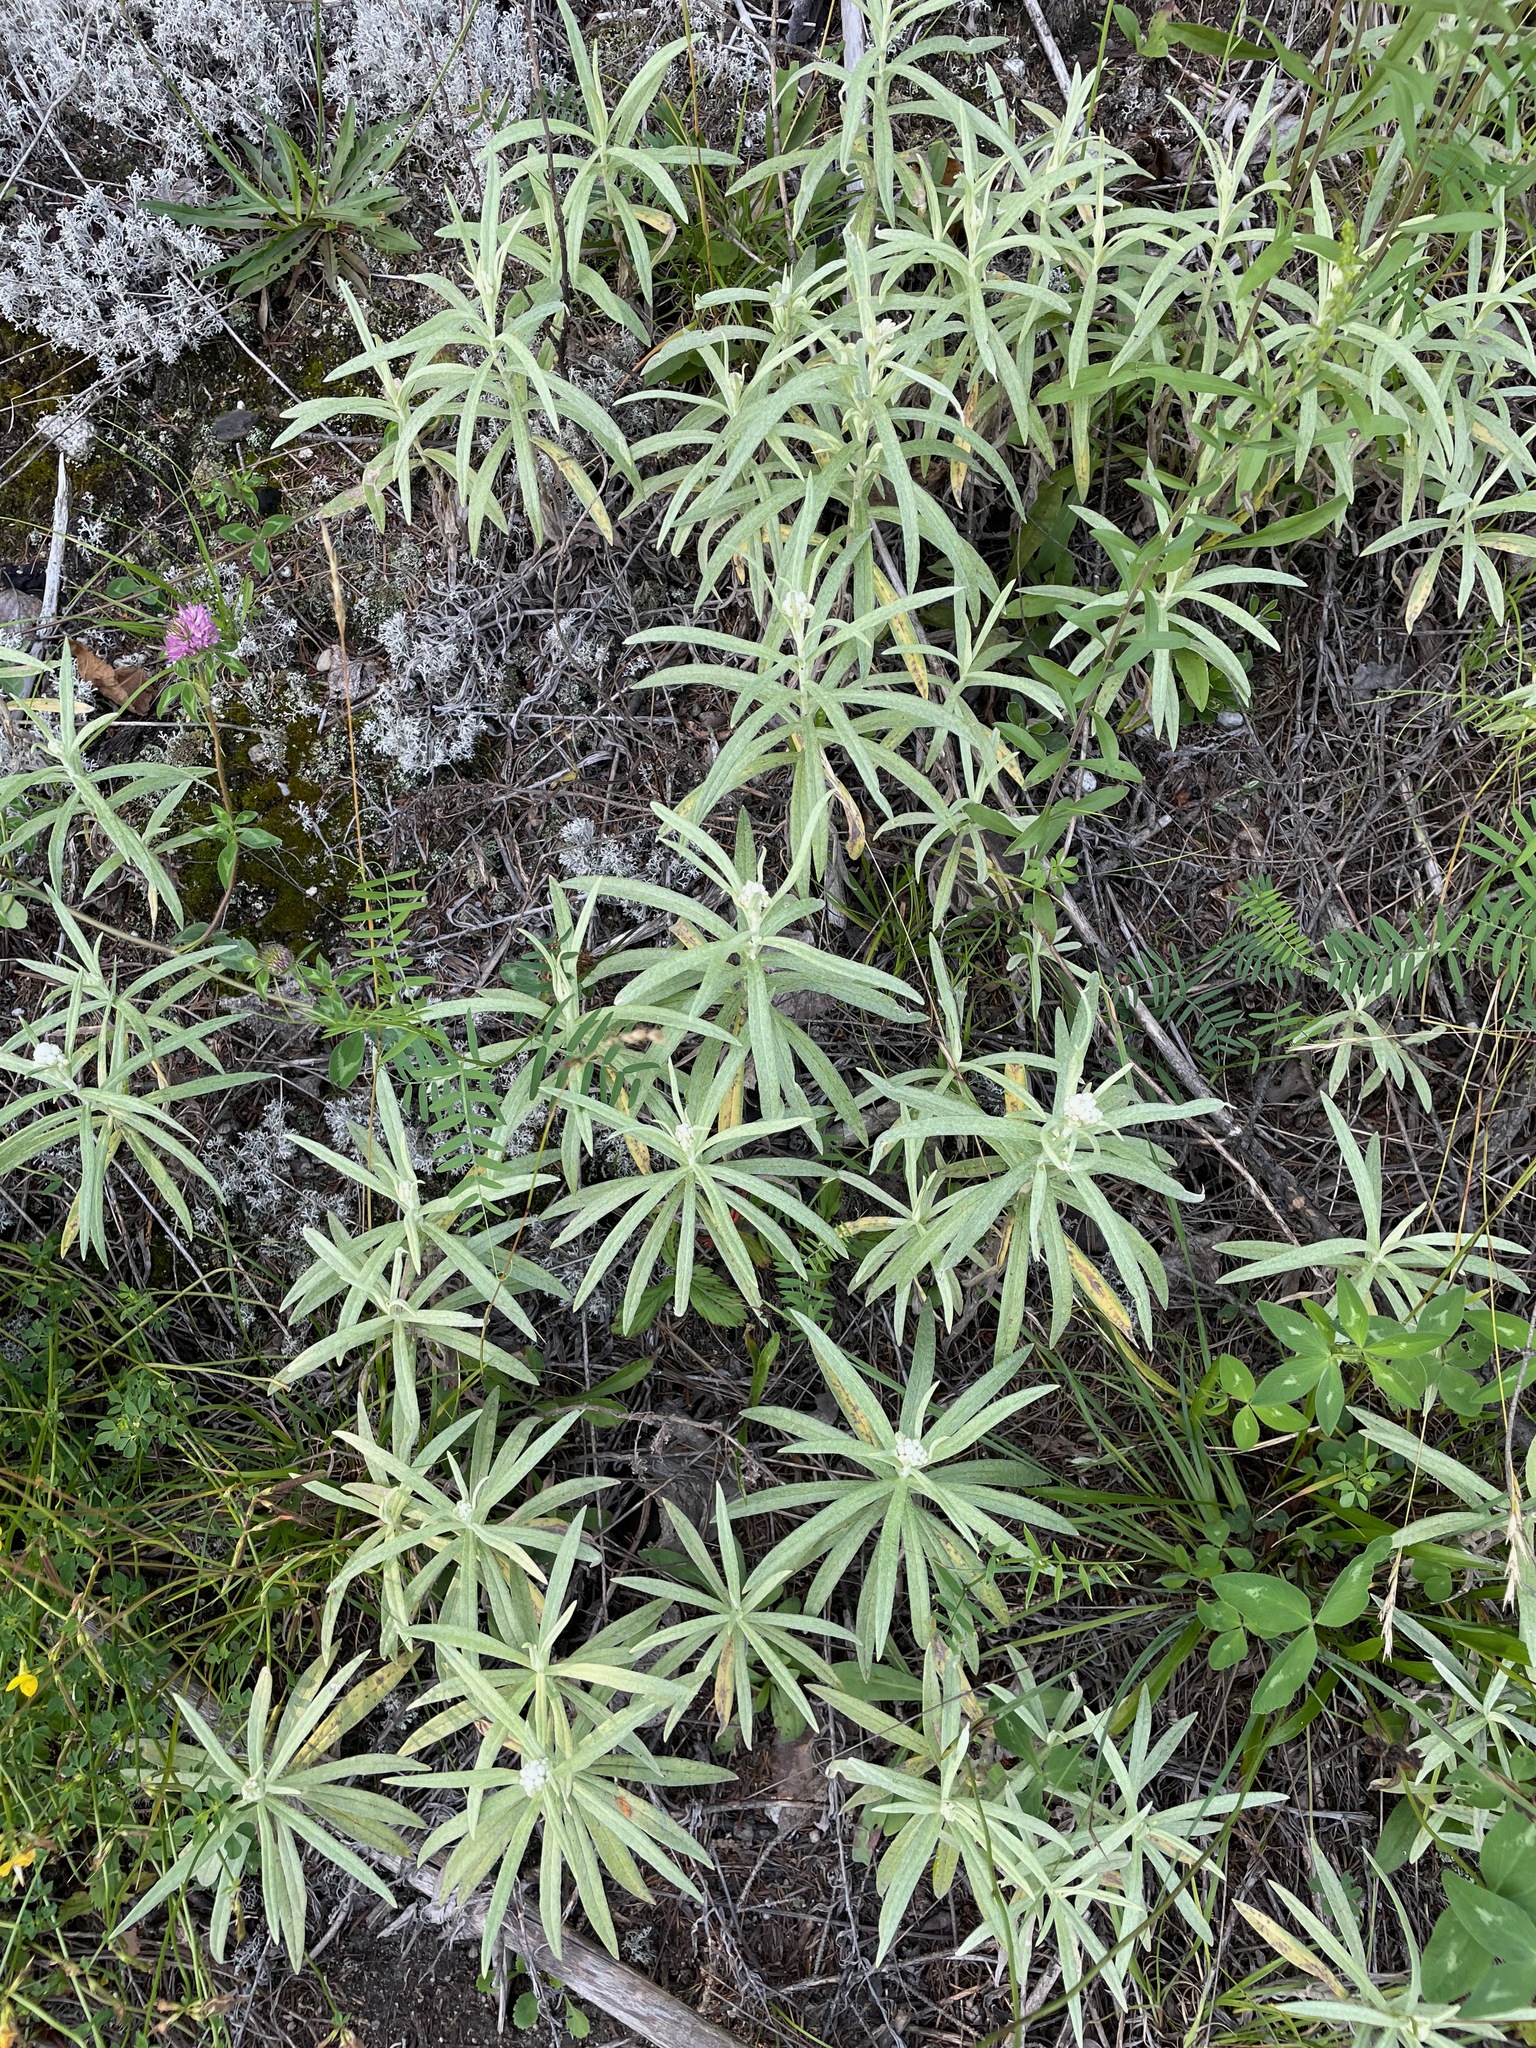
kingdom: Plantae
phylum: Tracheophyta
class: Magnoliopsida
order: Asterales
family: Asteraceae
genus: Anaphalis
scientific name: Anaphalis margaritacea
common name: Pearly everlasting
